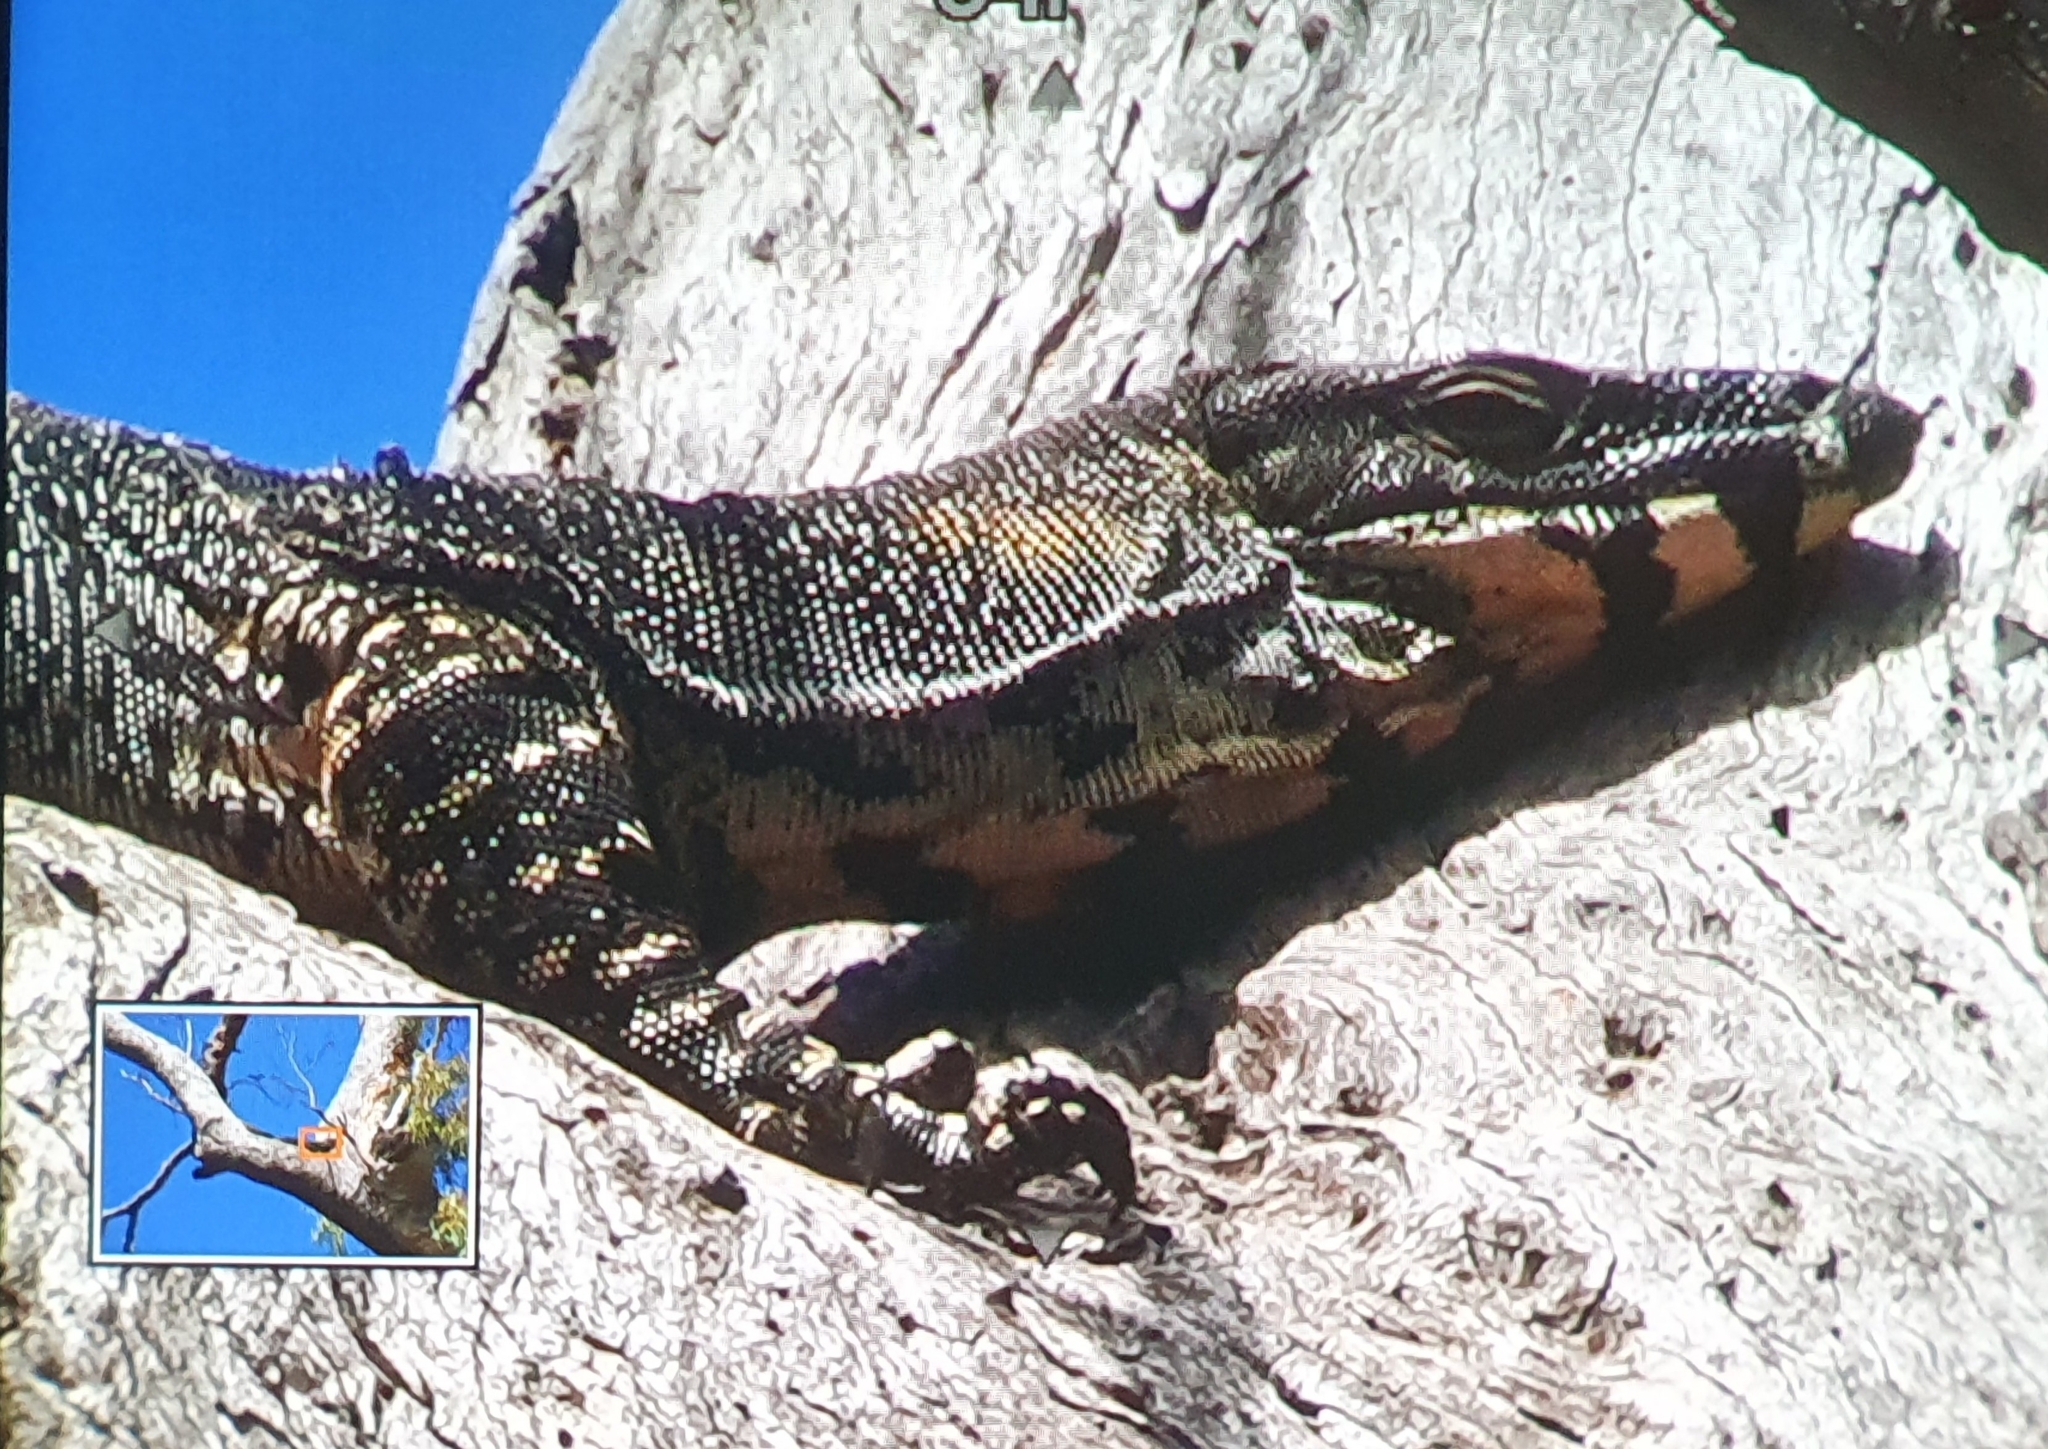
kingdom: Animalia
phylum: Chordata
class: Squamata
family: Varanidae
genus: Varanus
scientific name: Varanus varius
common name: Lace monitor
